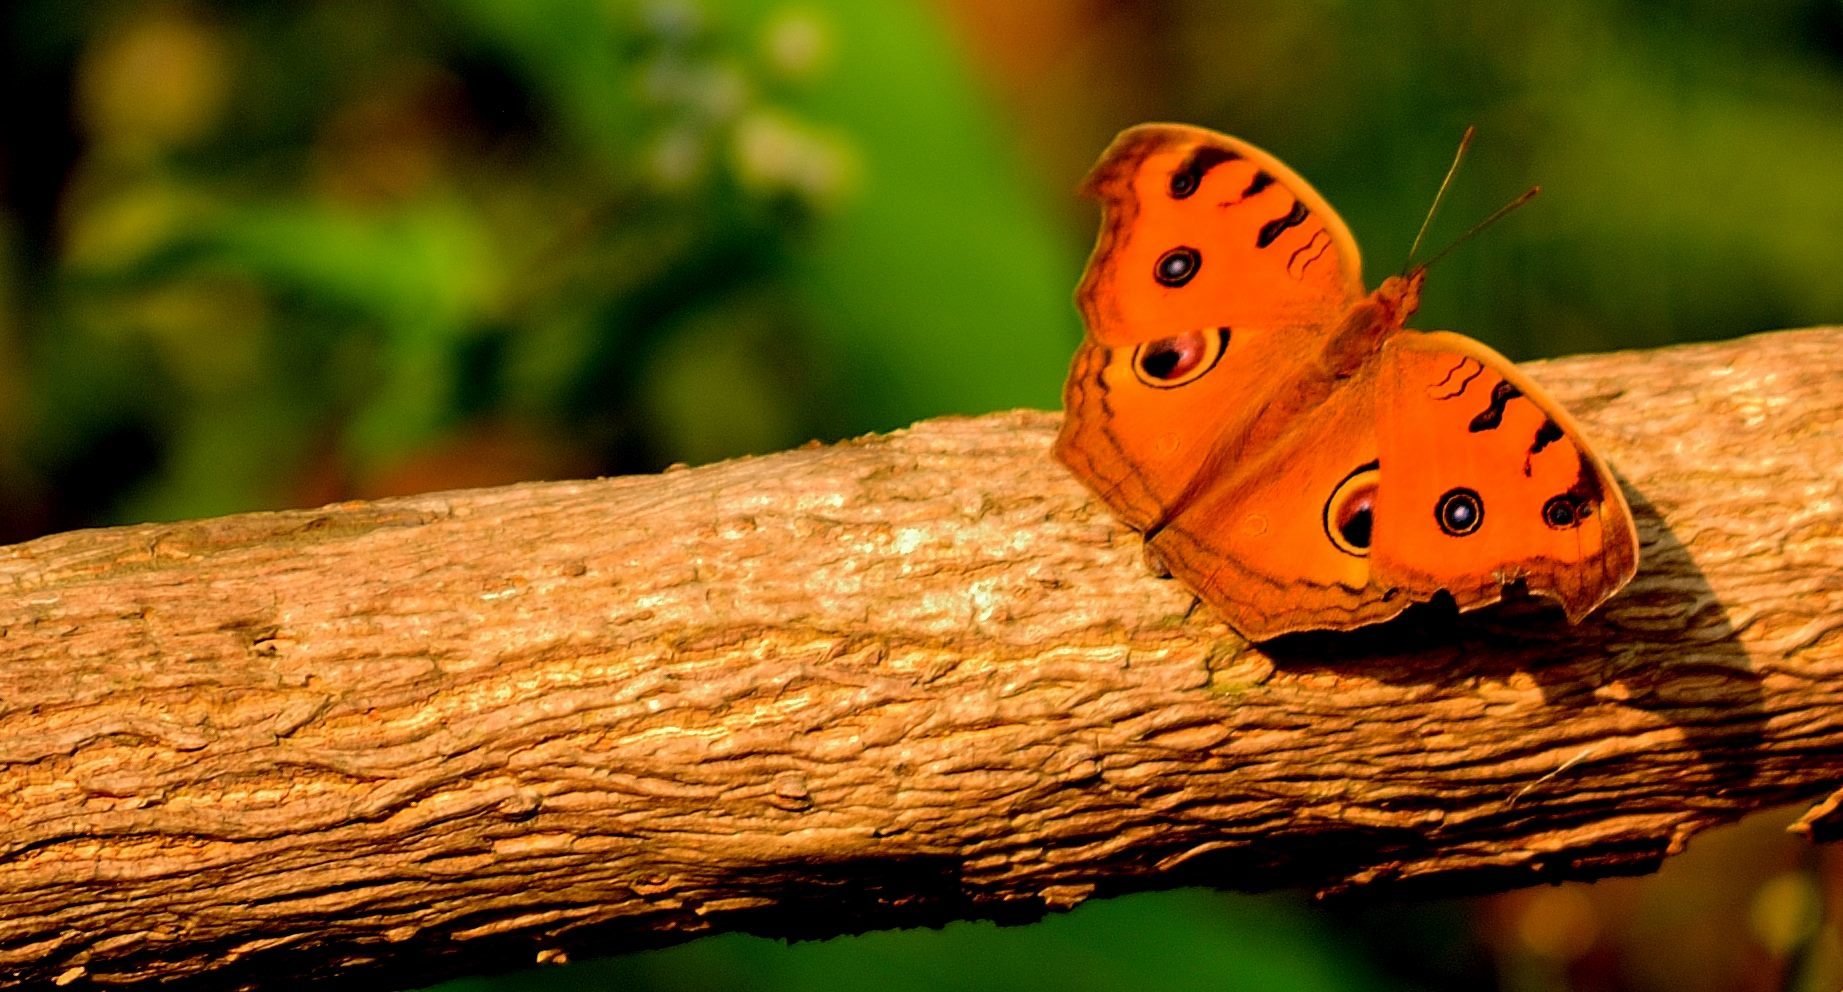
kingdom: Animalia
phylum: Arthropoda
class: Insecta
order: Lepidoptera
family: Nymphalidae
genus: Junonia
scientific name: Junonia almana
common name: Peacock pansy
